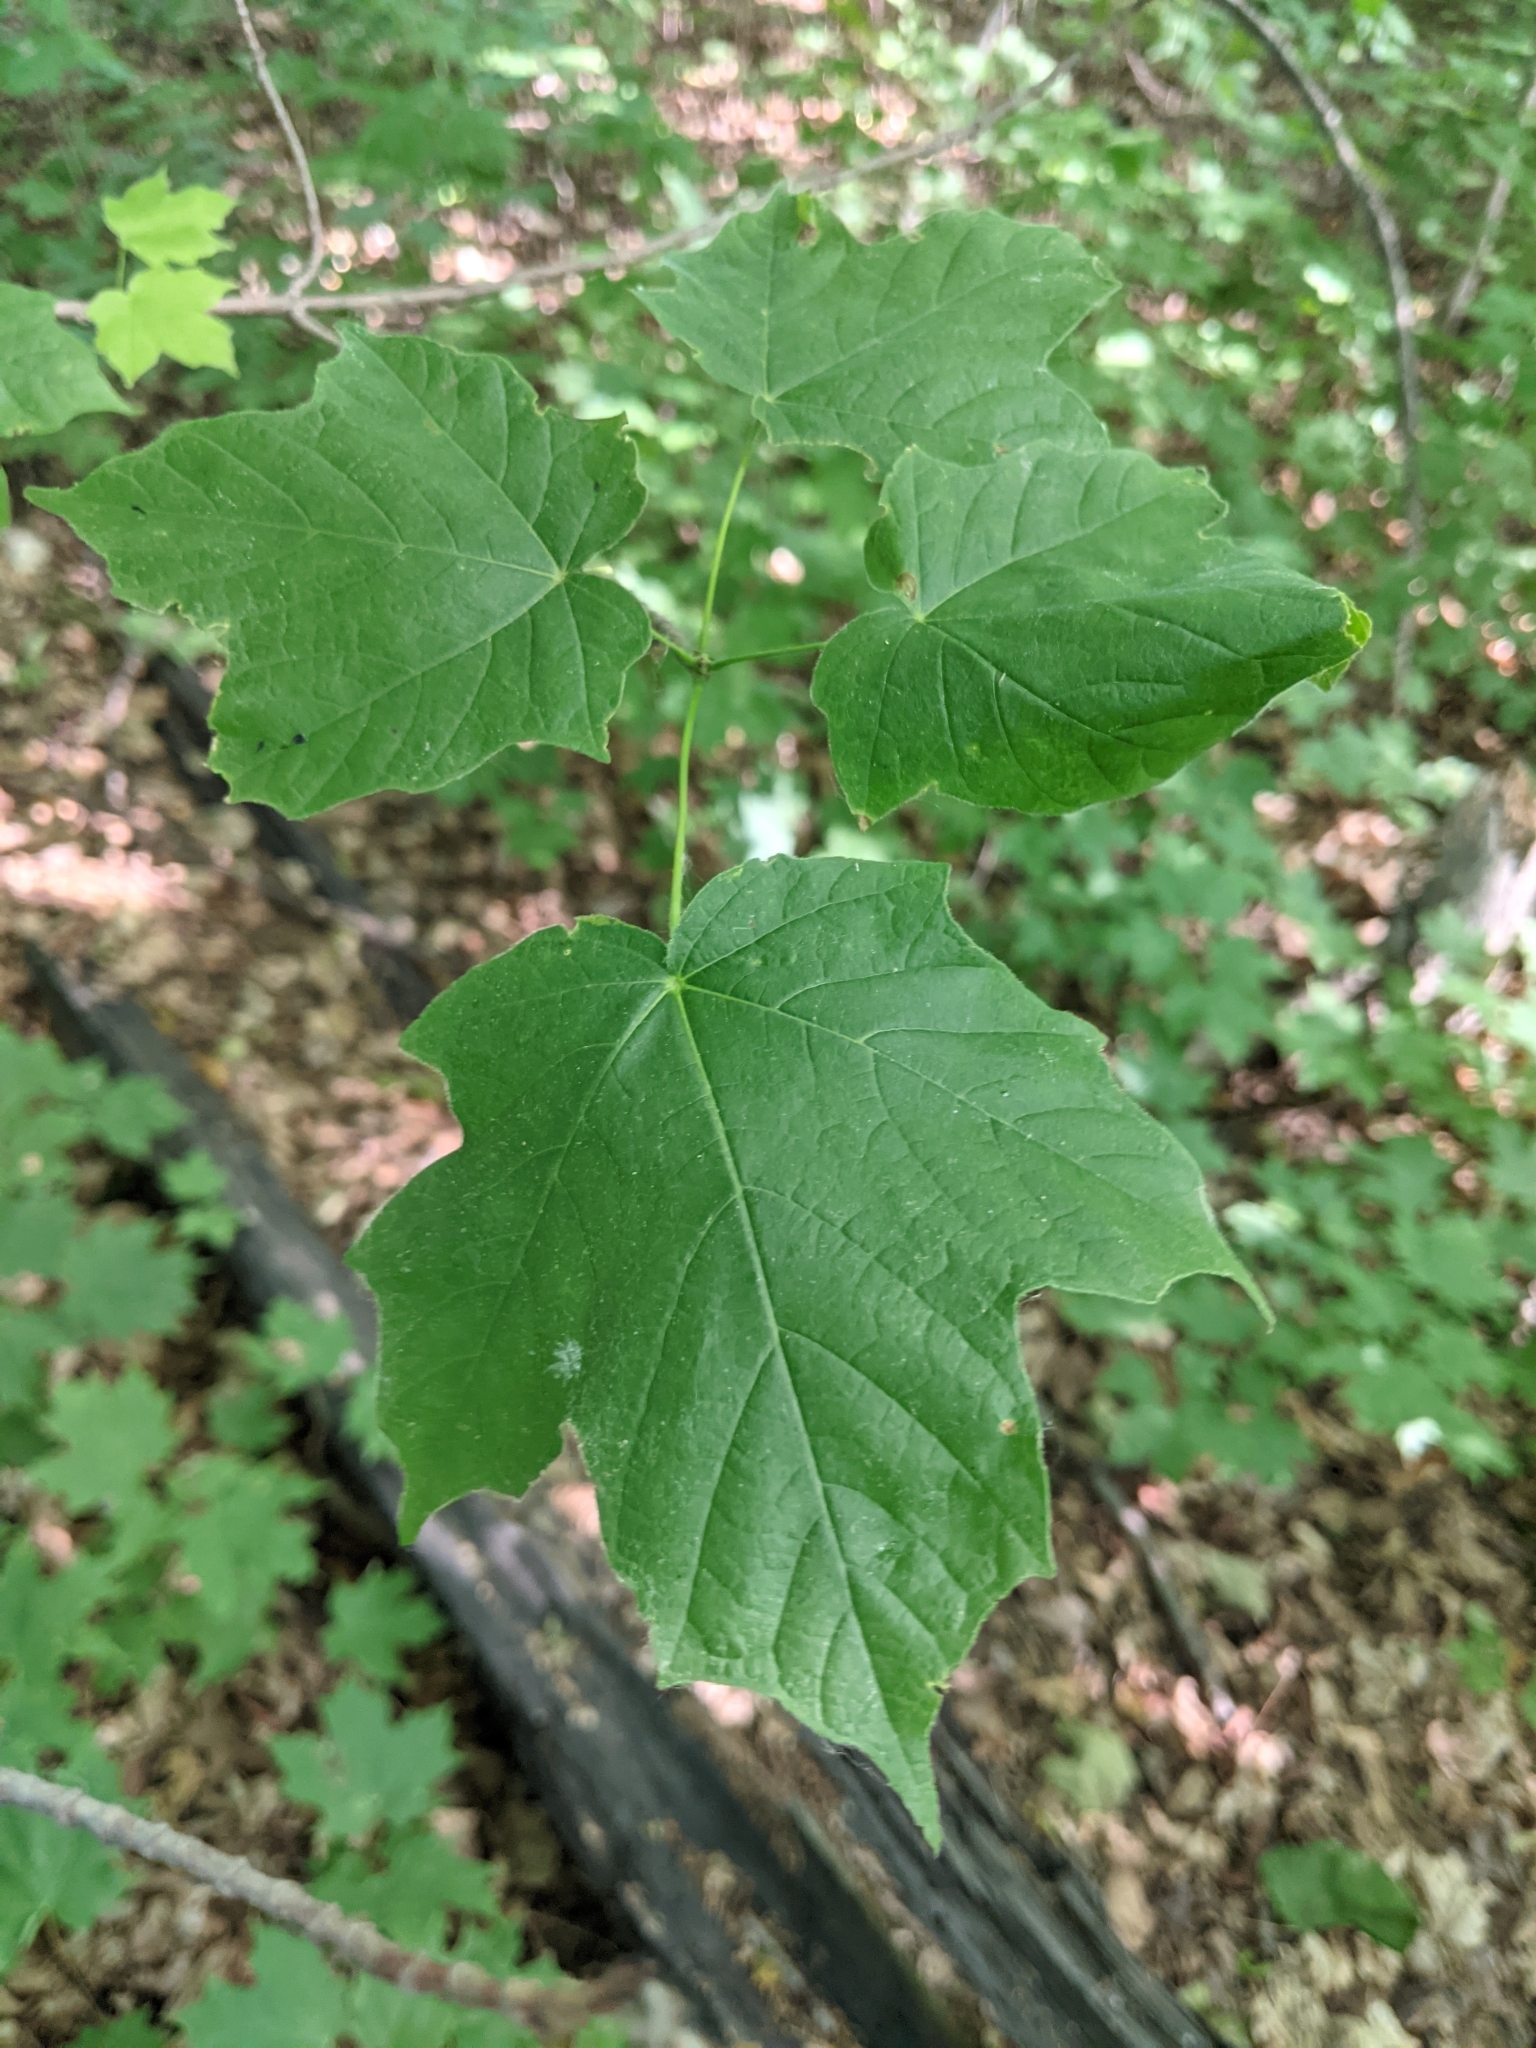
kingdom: Plantae
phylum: Tracheophyta
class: Magnoliopsida
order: Sapindales
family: Sapindaceae
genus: Acer
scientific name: Acer nigrum
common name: Black maple
